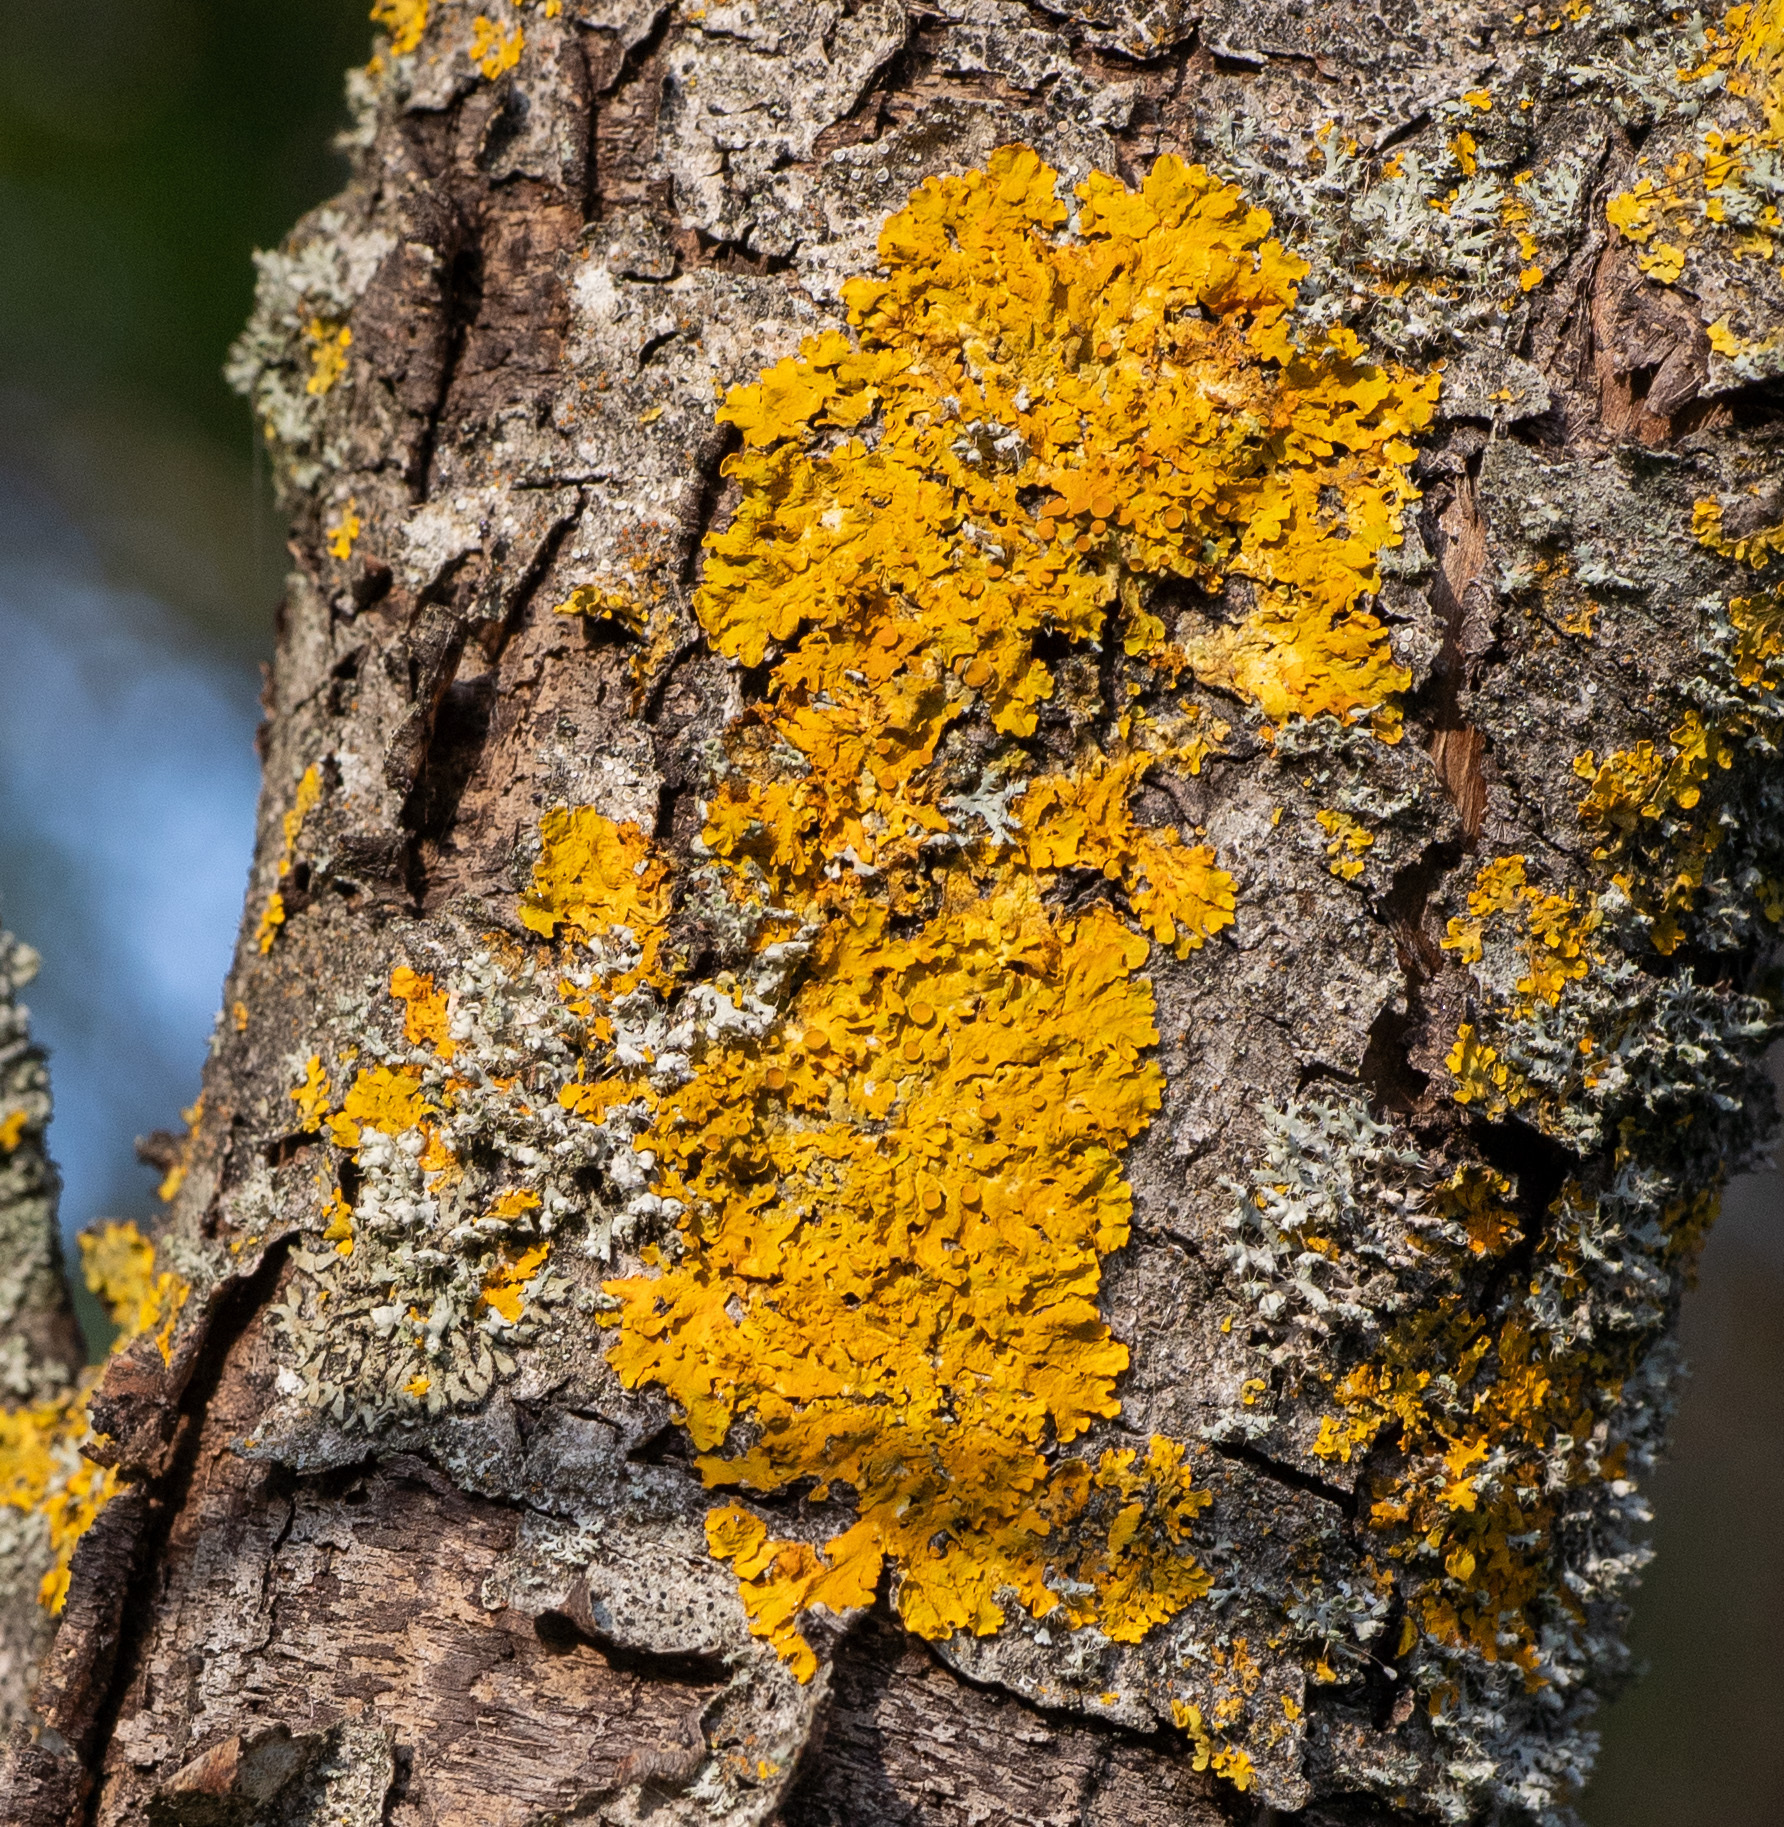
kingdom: Fungi
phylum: Ascomycota
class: Lecanoromycetes
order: Teloschistales
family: Teloschistaceae
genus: Xanthoria
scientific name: Xanthoria parietina
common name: Common orange lichen
